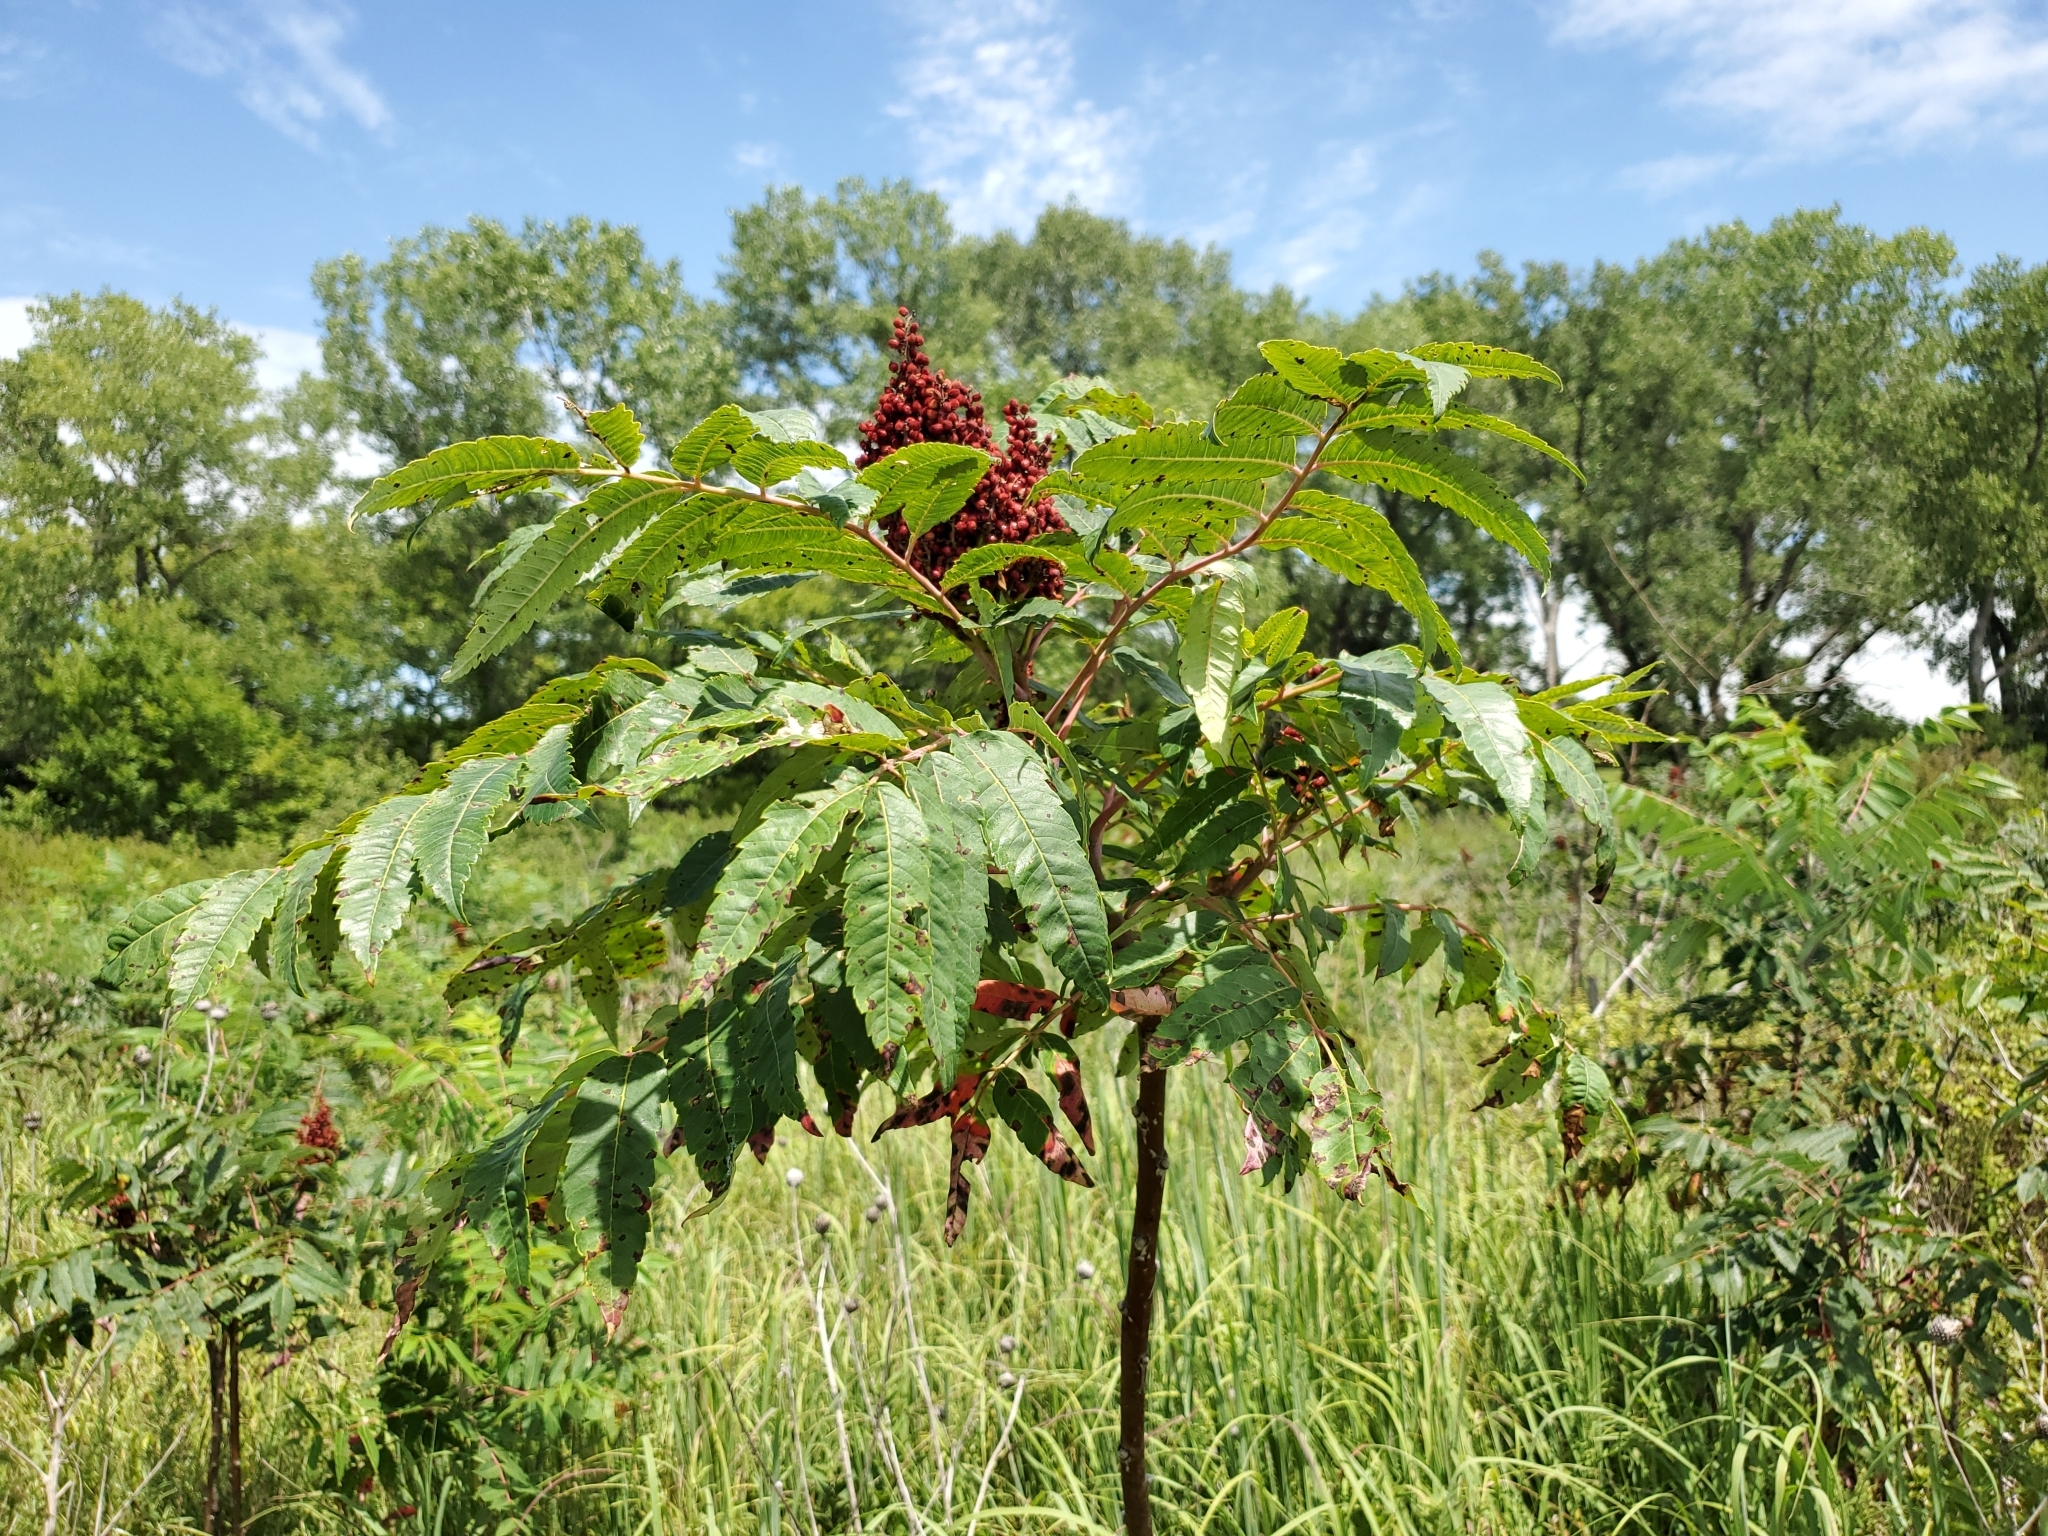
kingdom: Plantae
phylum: Tracheophyta
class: Magnoliopsida
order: Sapindales
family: Anacardiaceae
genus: Rhus
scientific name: Rhus glabra
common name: Scarlet sumac
